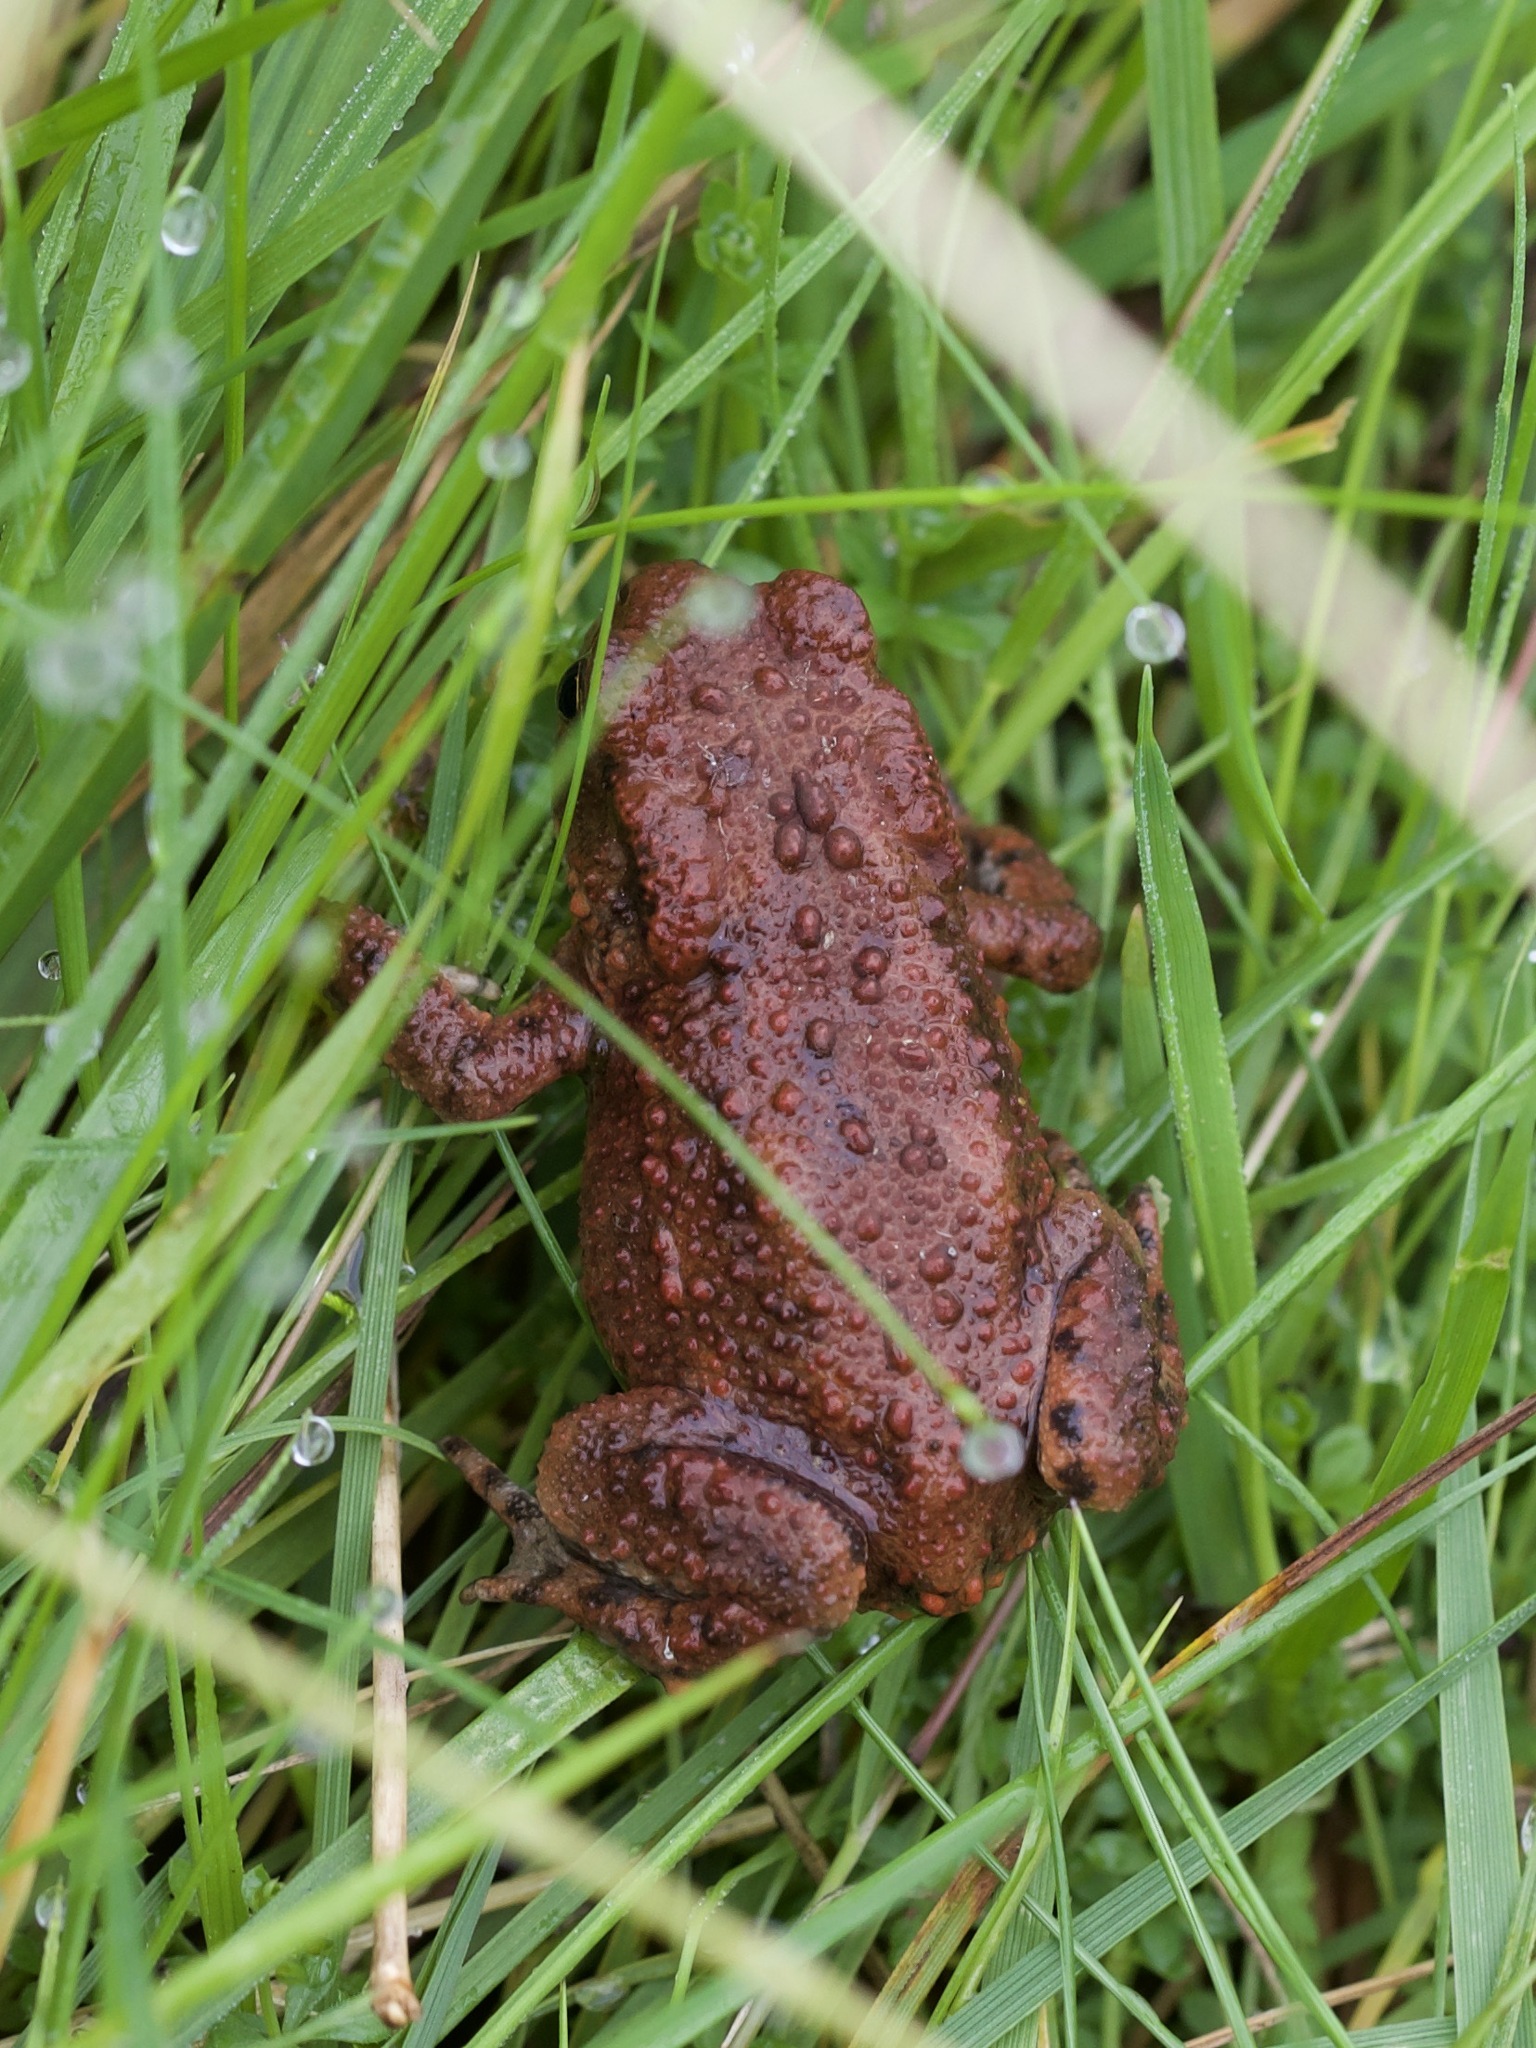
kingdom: Animalia
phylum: Chordata
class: Amphibia
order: Anura
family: Bufonidae
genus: Bufo
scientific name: Bufo bufo
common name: Common toad
